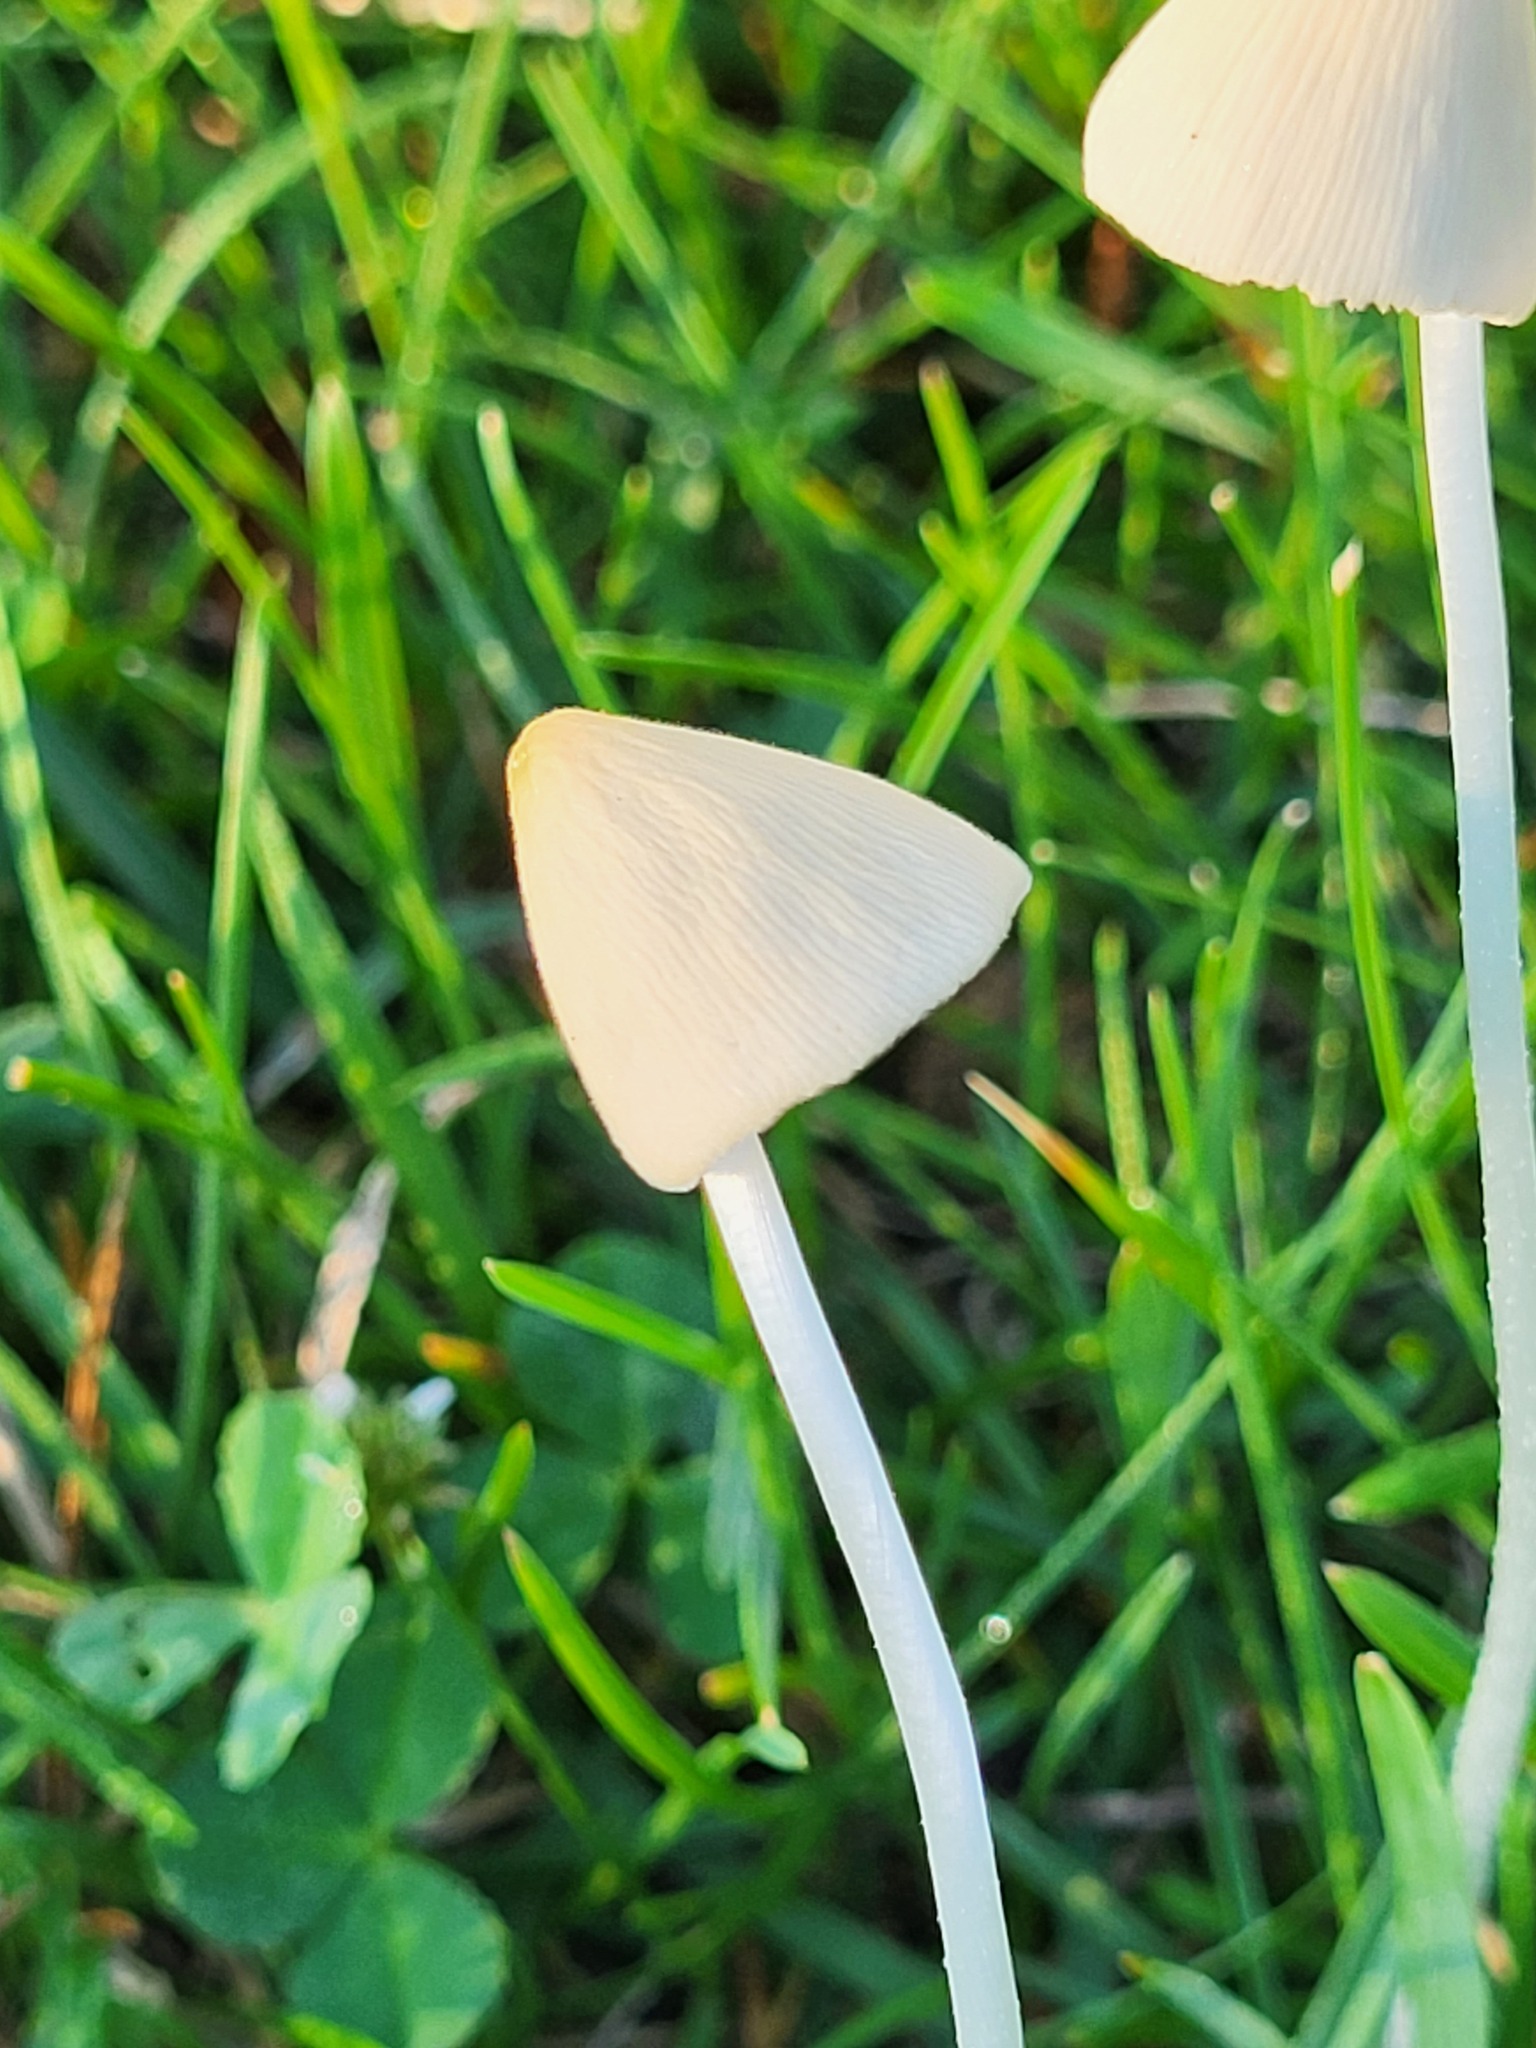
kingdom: Fungi
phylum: Basidiomycota
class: Agaricomycetes
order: Agaricales
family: Bolbitiaceae
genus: Conocybe
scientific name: Conocybe apala
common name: Milky conecap
